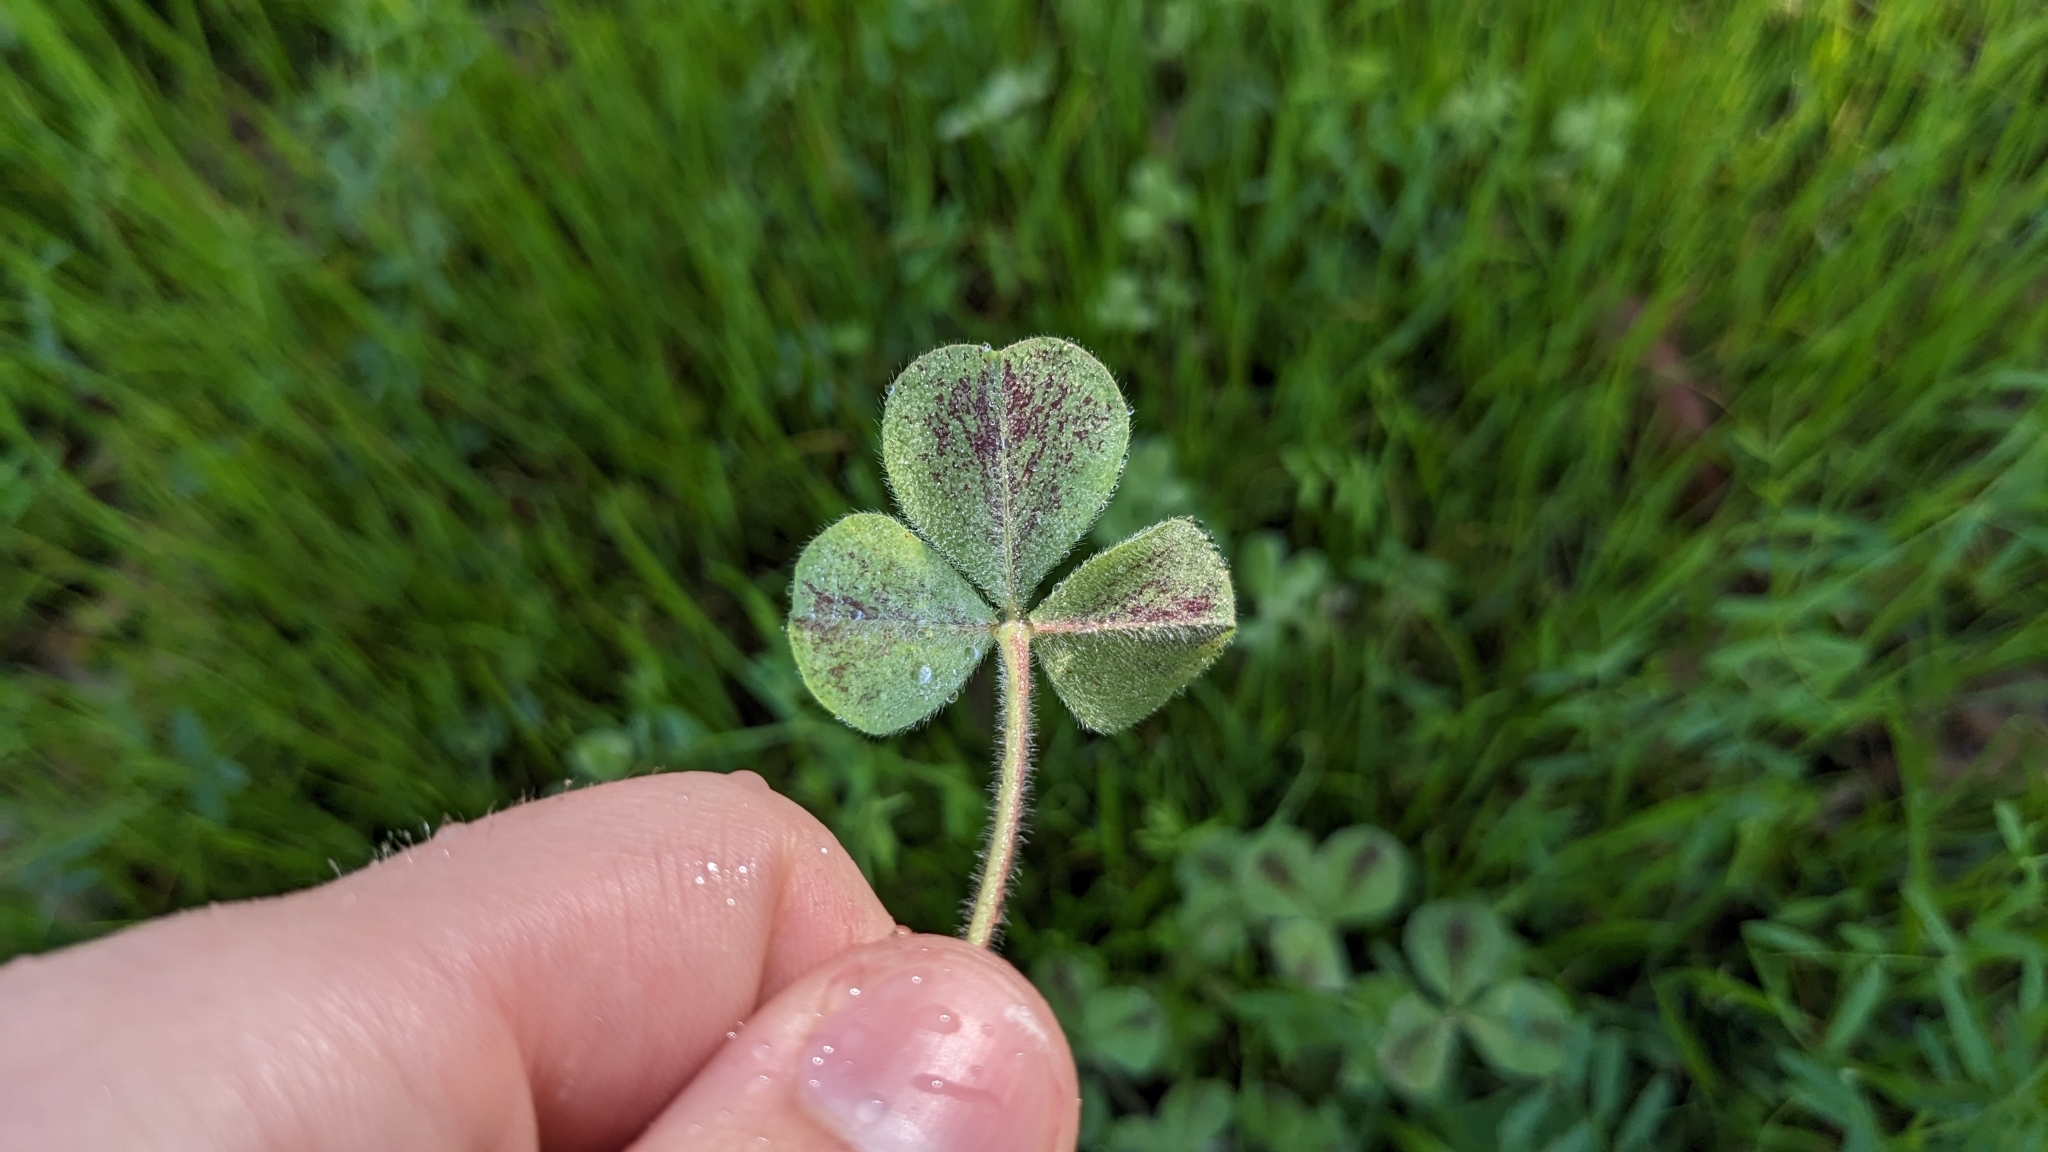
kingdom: Plantae
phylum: Tracheophyta
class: Magnoliopsida
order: Fabales
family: Fabaceae
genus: Trifolium
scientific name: Trifolium incarnatum
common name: Crimson clover
